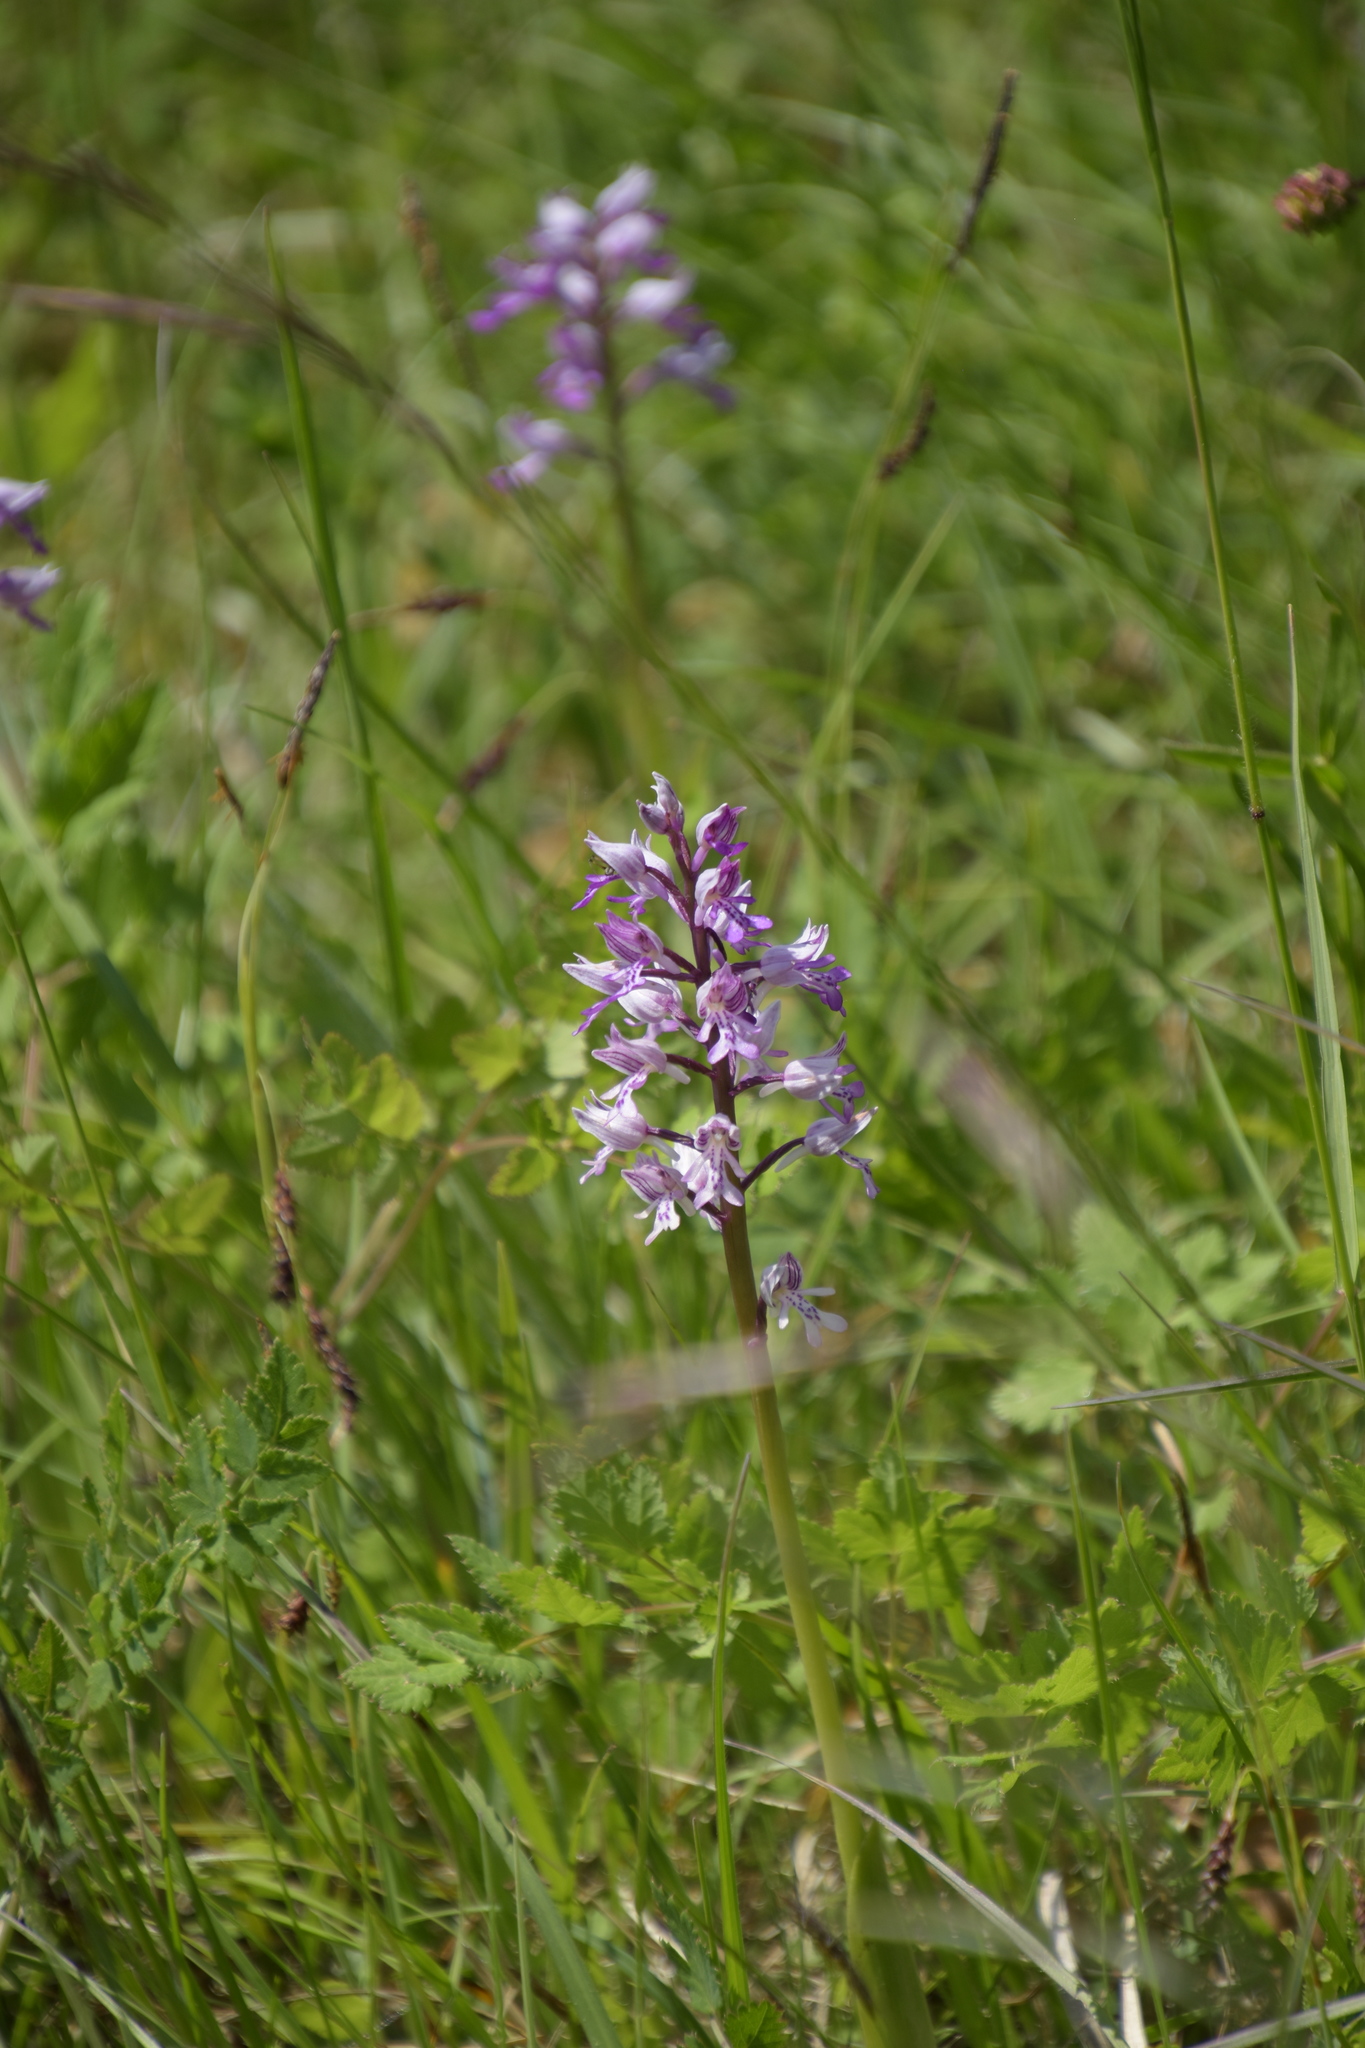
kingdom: Plantae
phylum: Tracheophyta
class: Liliopsida
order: Asparagales
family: Orchidaceae
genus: Orchis
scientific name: Orchis militaris
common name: Military orchid
